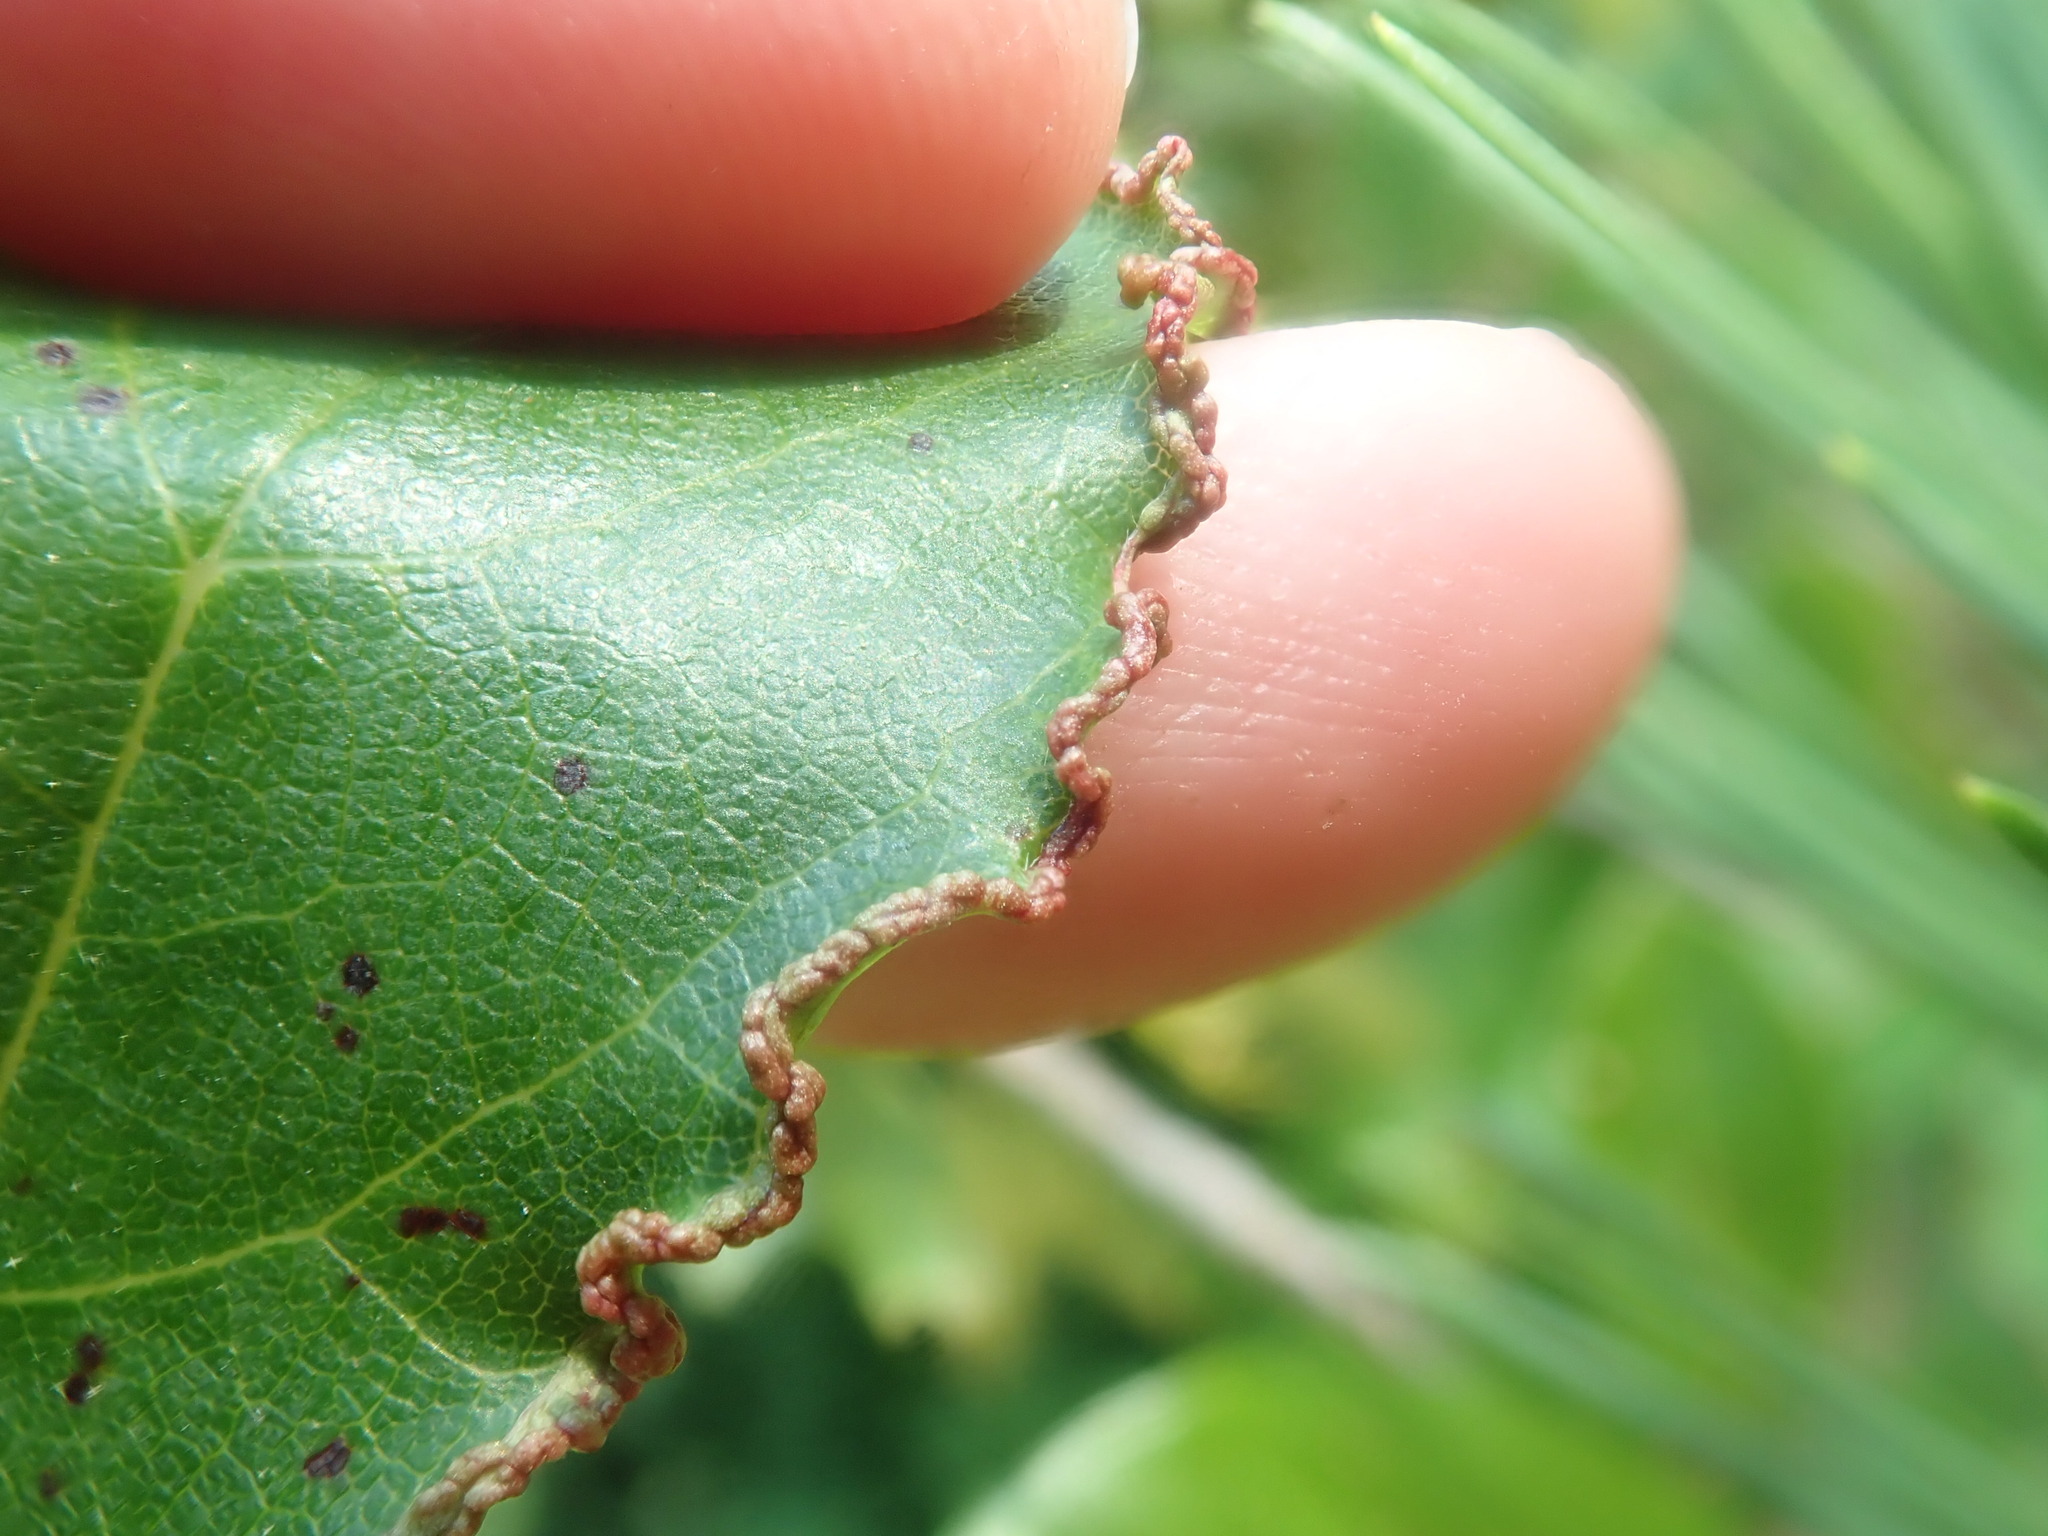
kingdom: Animalia
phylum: Arthropoda
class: Arachnida
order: Trombidiformes
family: Eriophyidae
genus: Aceria
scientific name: Aceria
